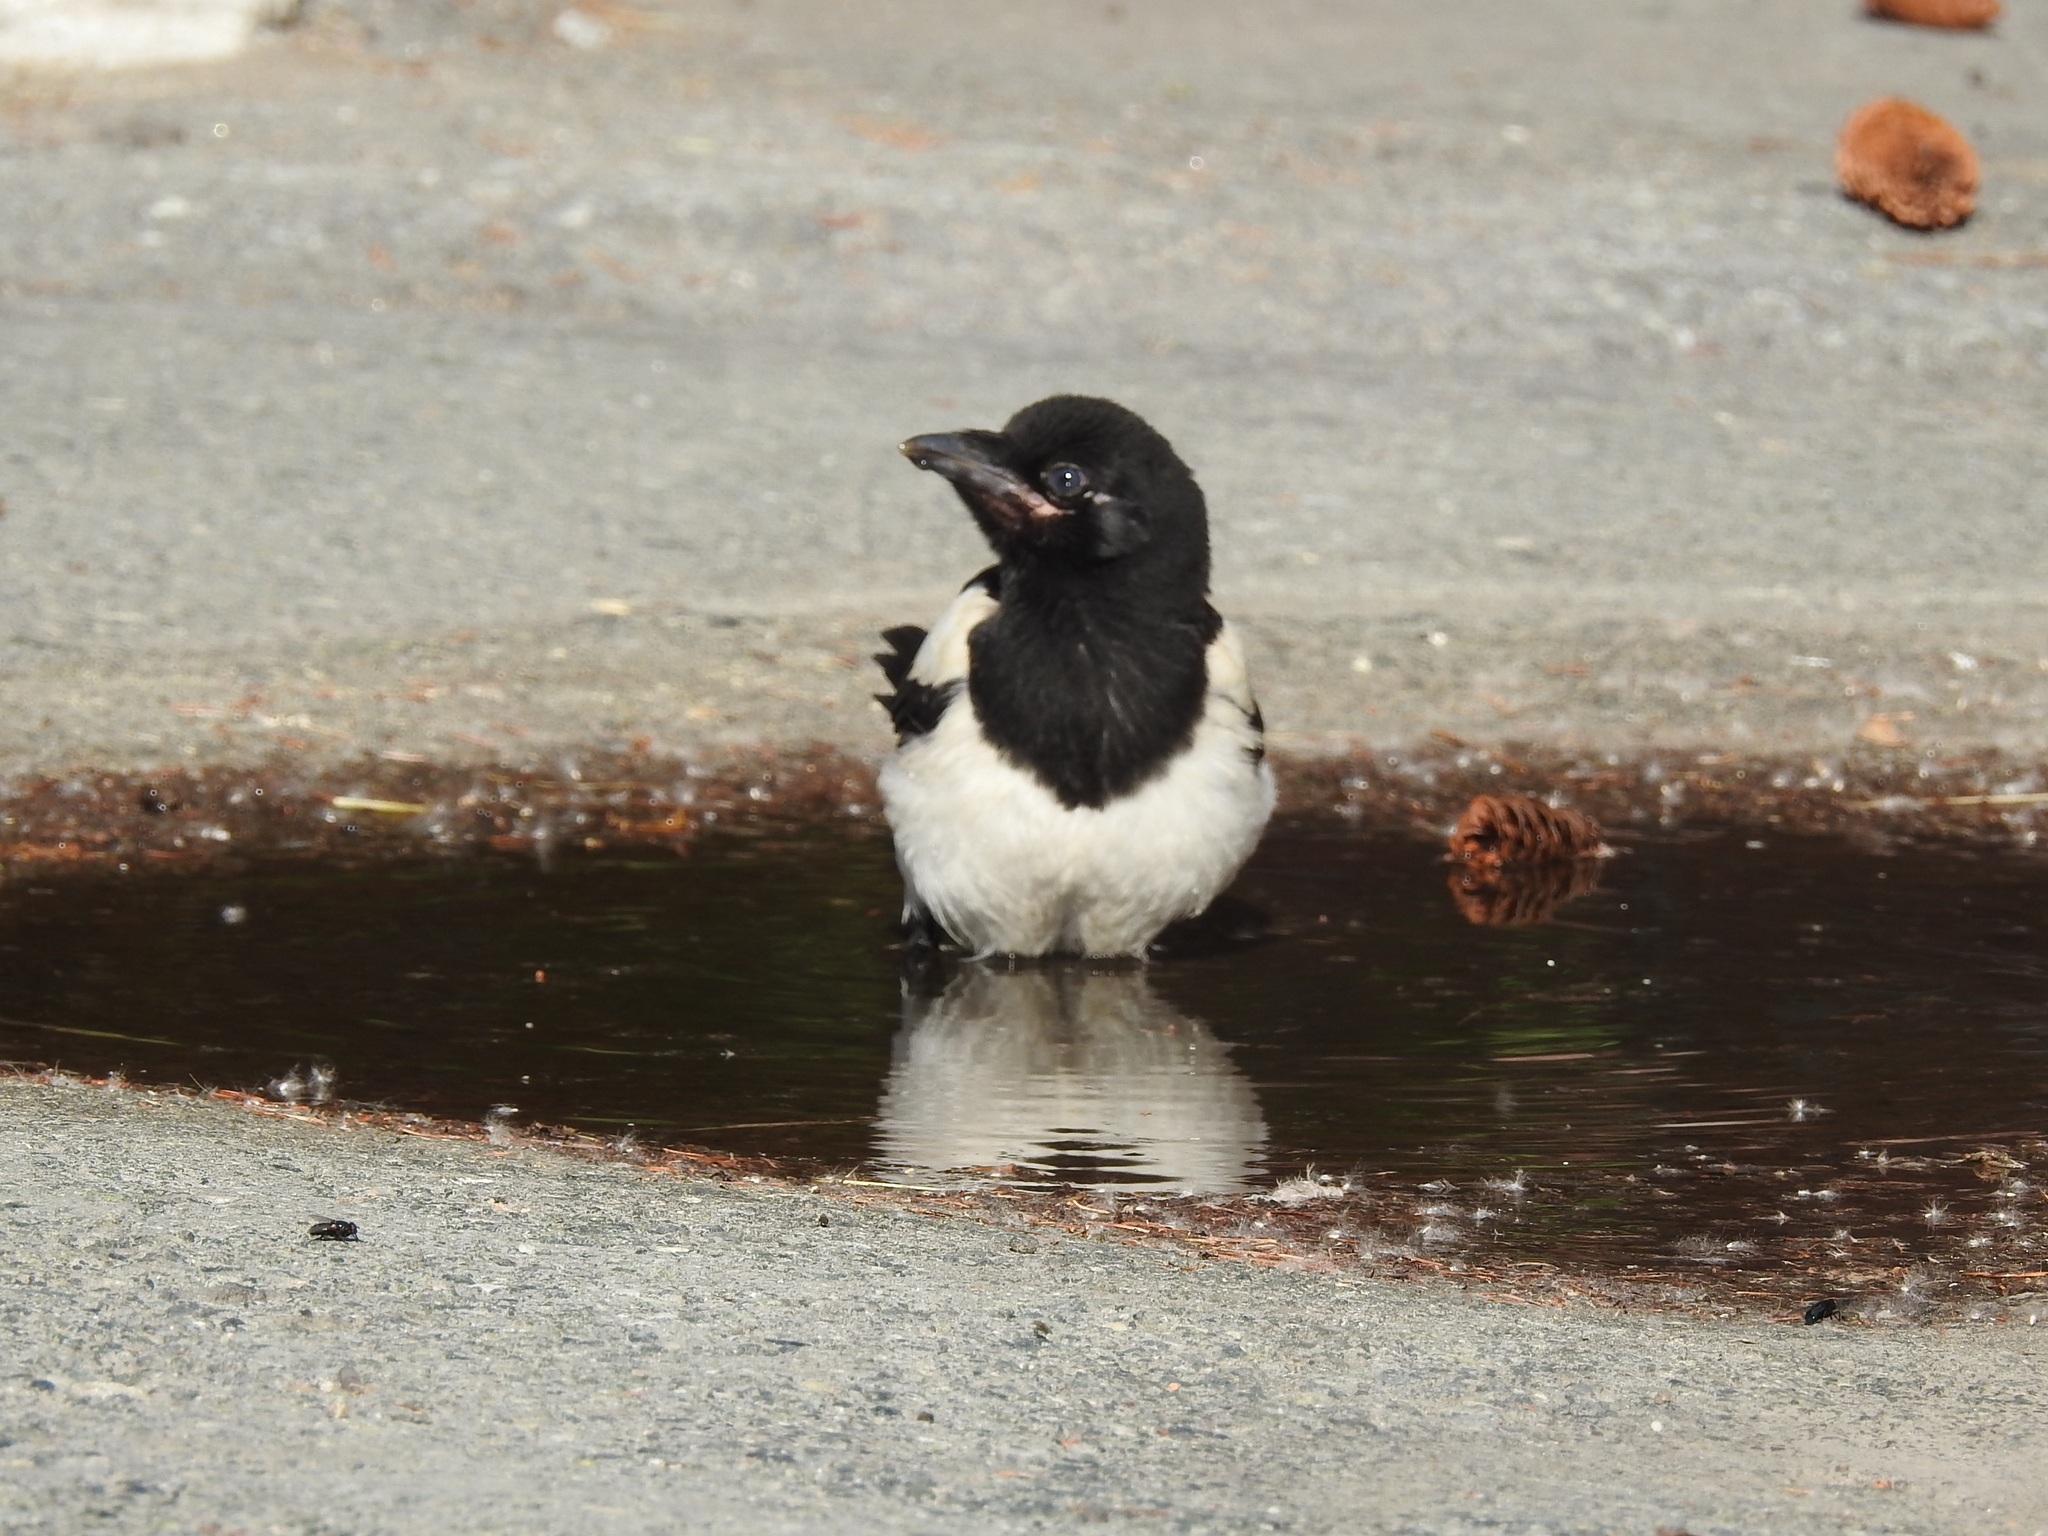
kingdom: Animalia
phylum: Chordata
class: Aves
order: Passeriformes
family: Corvidae
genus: Pica
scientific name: Pica pica
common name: Eurasian magpie
